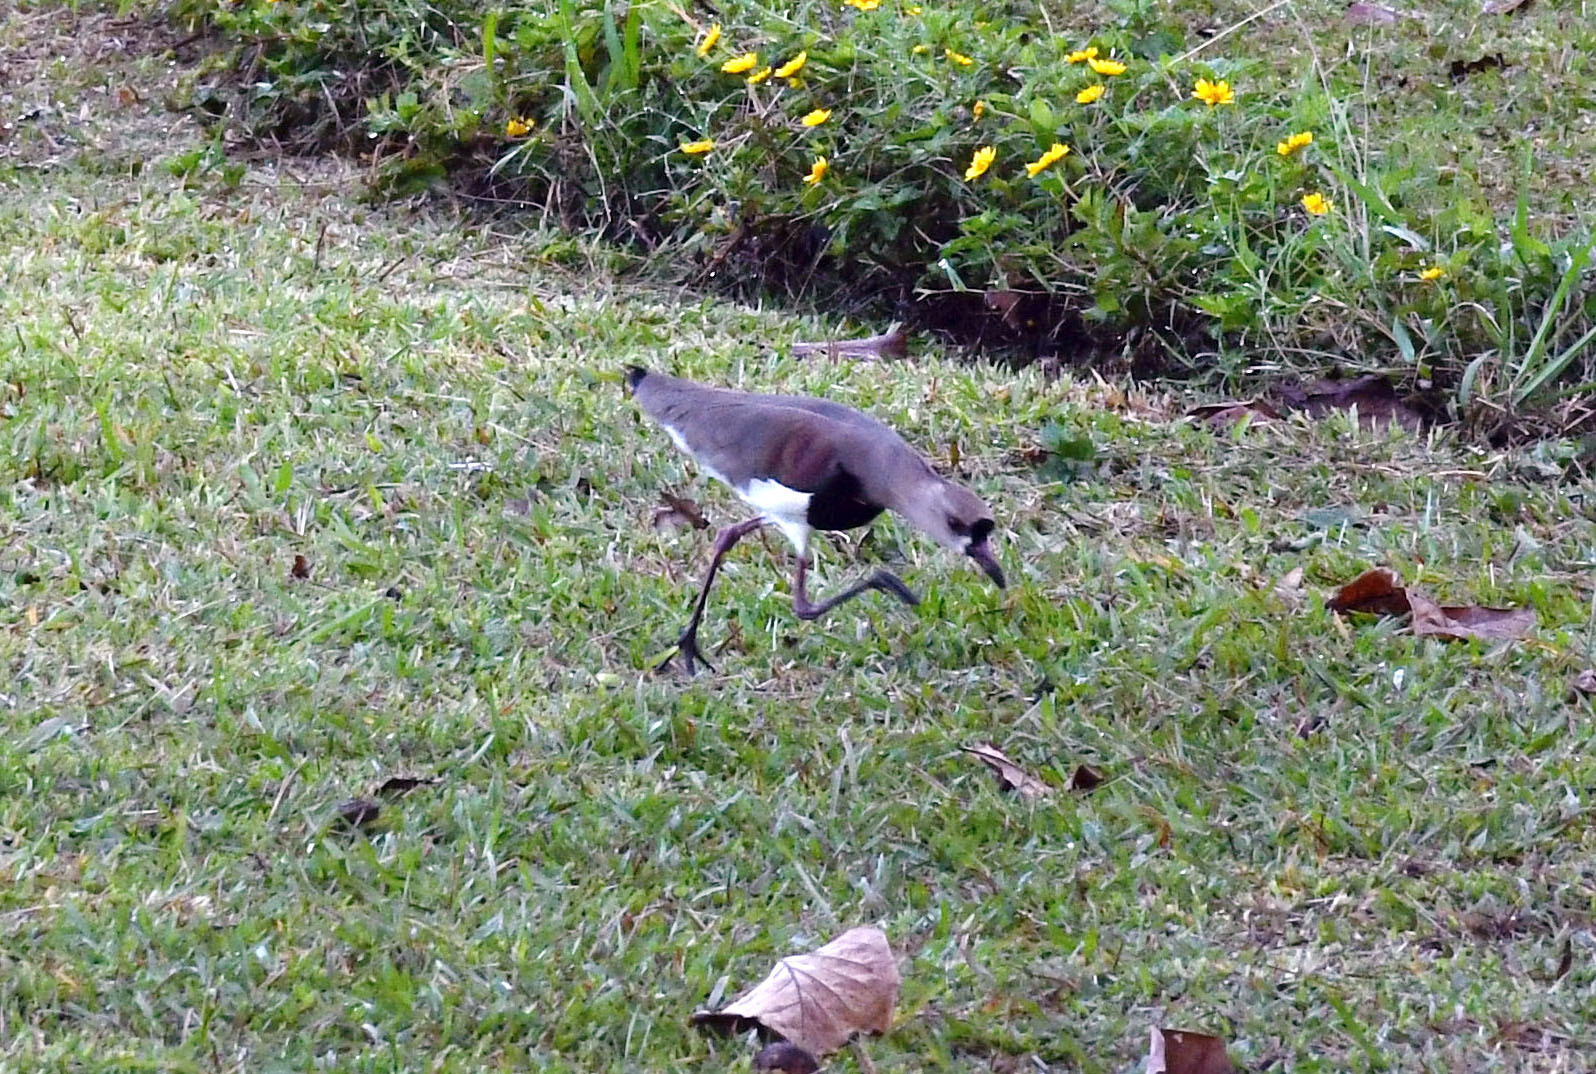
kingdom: Animalia
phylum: Chordata
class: Aves
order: Charadriiformes
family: Charadriidae
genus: Vanellus
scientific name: Vanellus chilensis
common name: Southern lapwing
